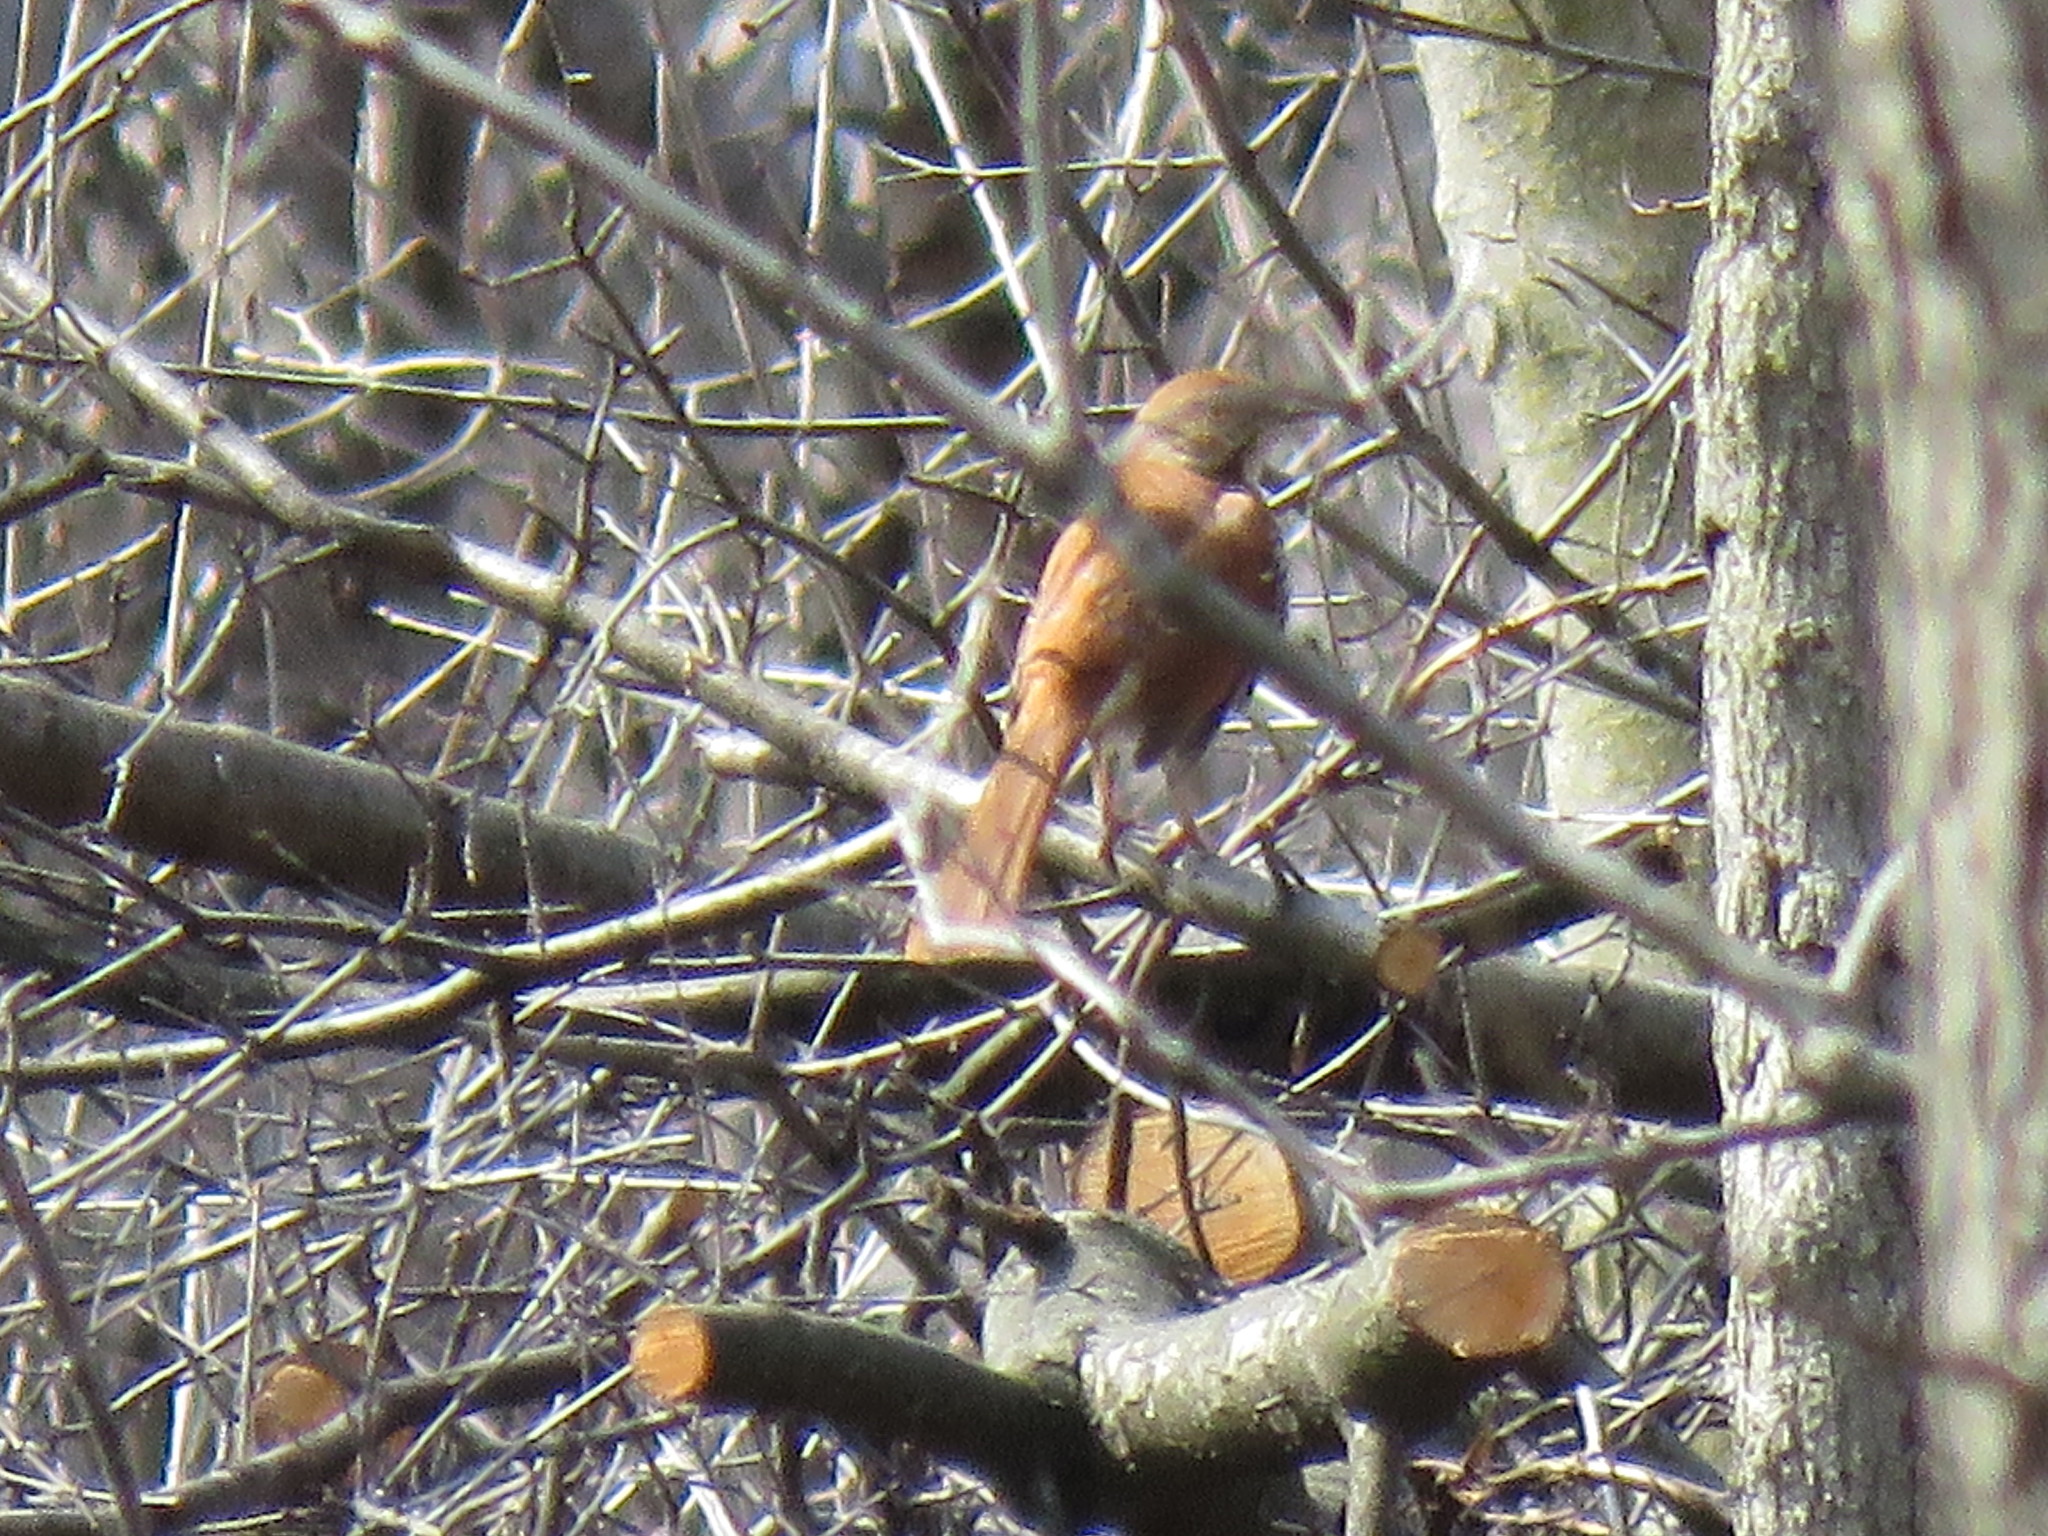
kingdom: Animalia
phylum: Chordata
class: Aves
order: Passeriformes
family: Mimidae
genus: Toxostoma
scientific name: Toxostoma rufum
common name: Brown thrasher
